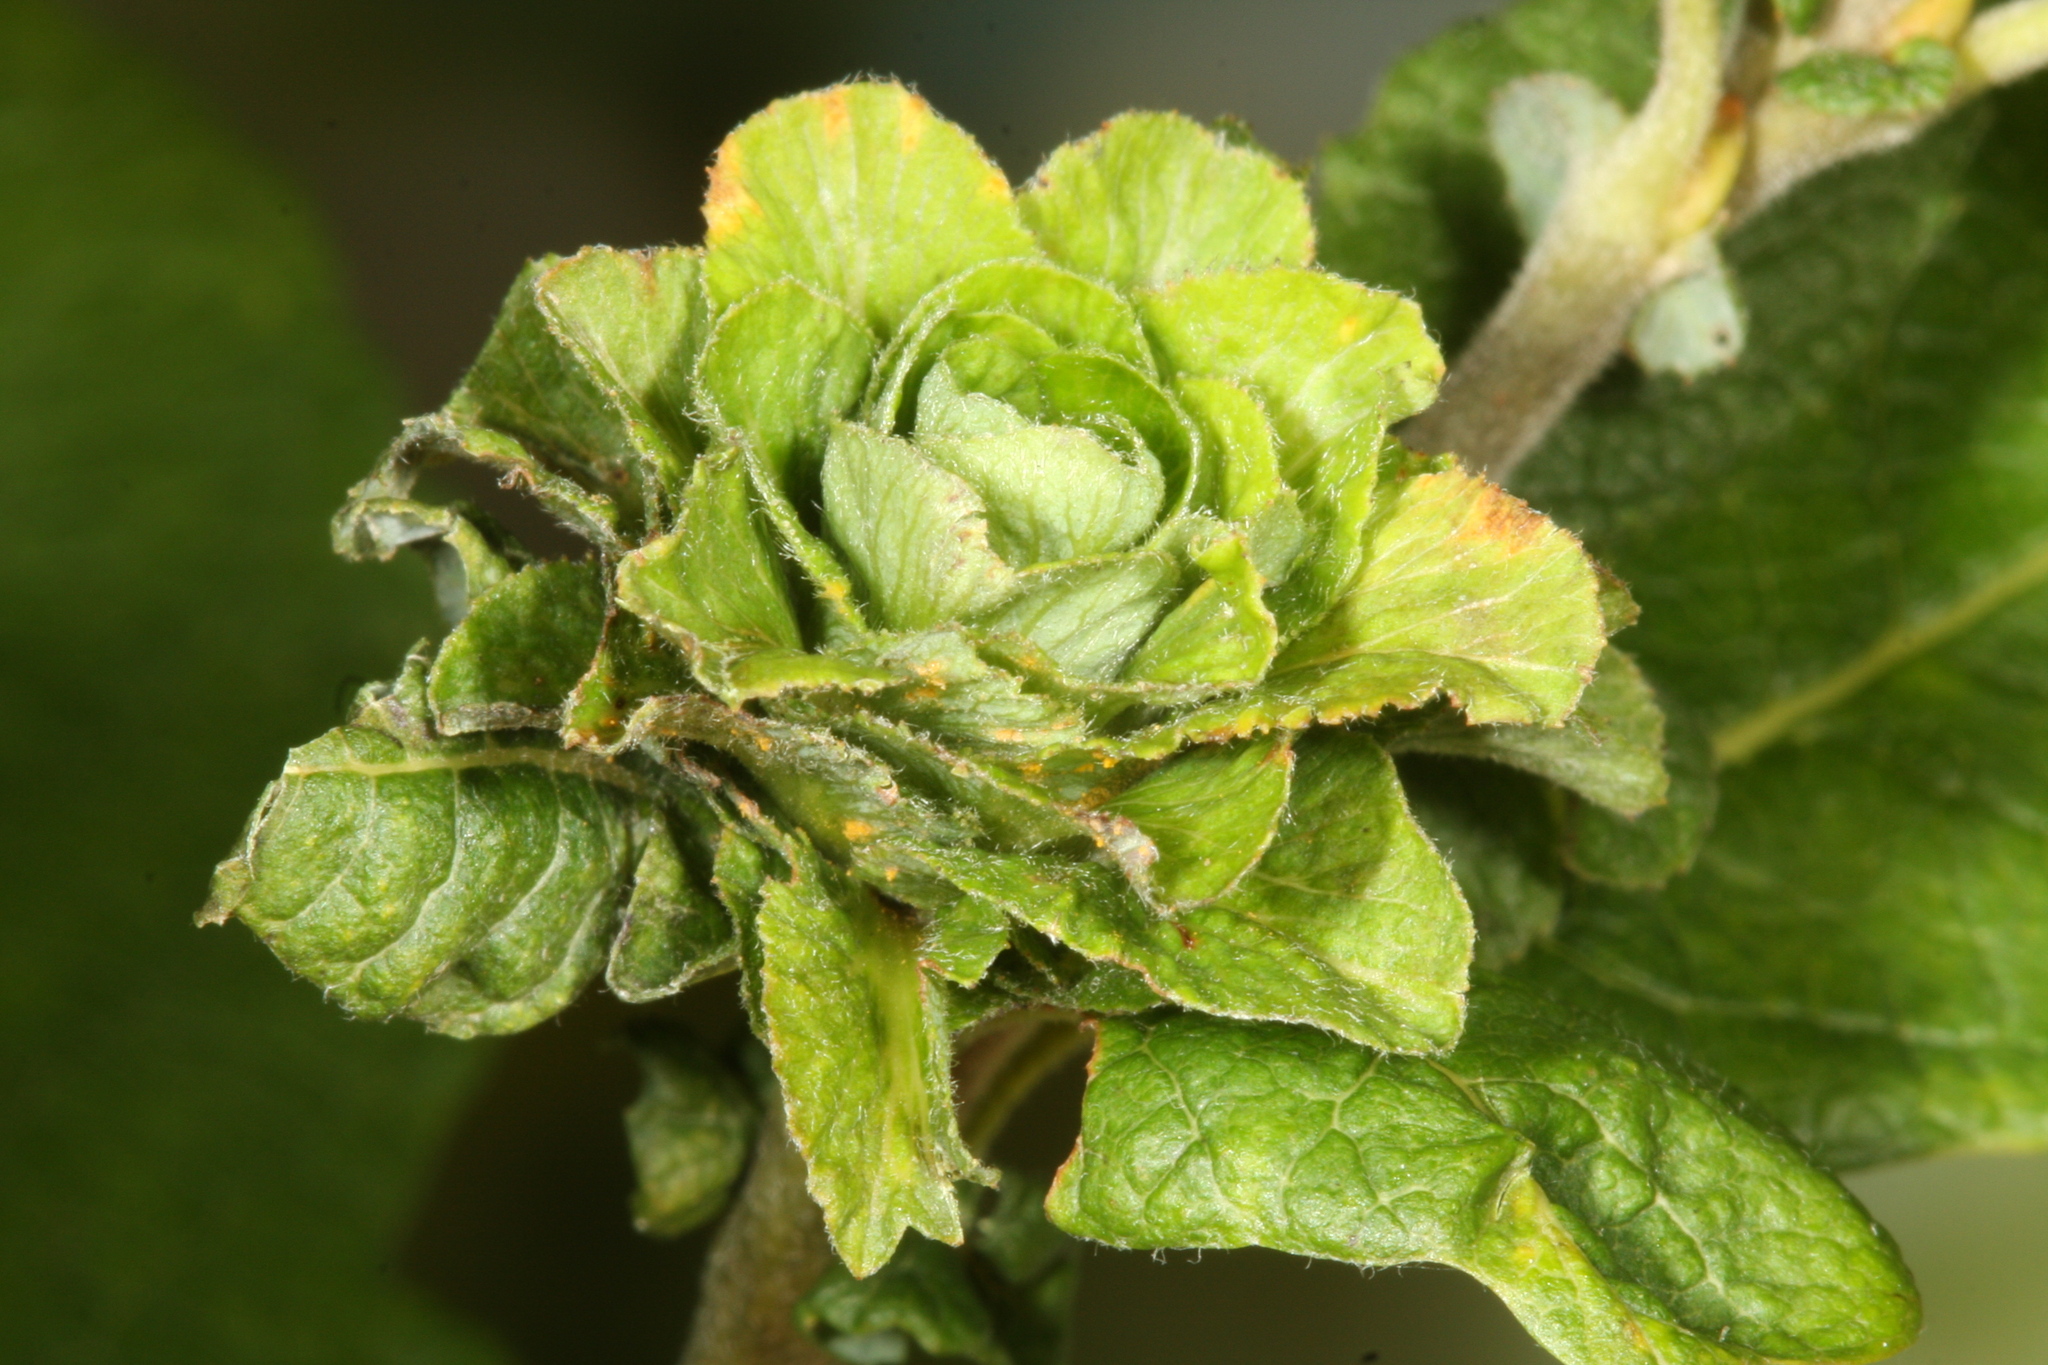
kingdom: Animalia
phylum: Arthropoda
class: Insecta
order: Diptera
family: Cecidomyiidae
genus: Rabdophaga
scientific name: Rabdophaga rosaria
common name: Willow rose gall midge
